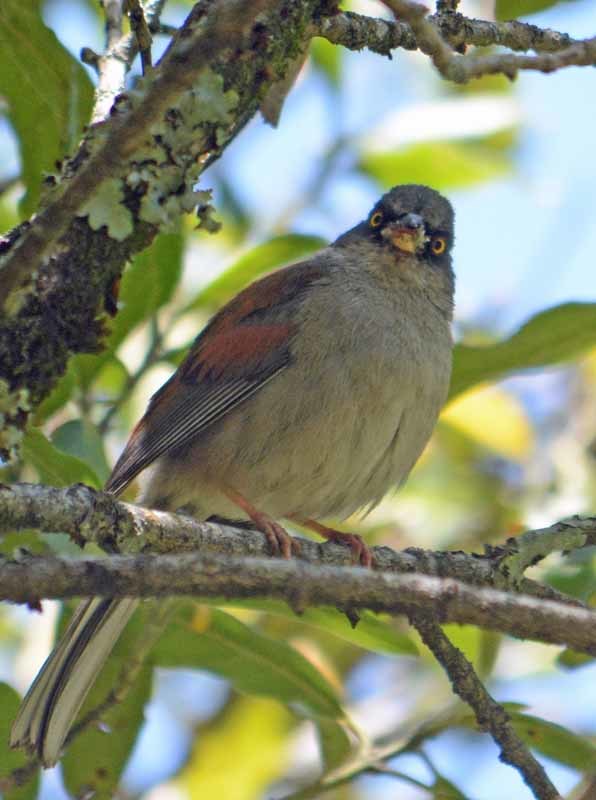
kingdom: Animalia
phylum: Chordata
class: Aves
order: Passeriformes
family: Passerellidae
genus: Junco
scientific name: Junco phaeonotus
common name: Yellow-eyed junco
